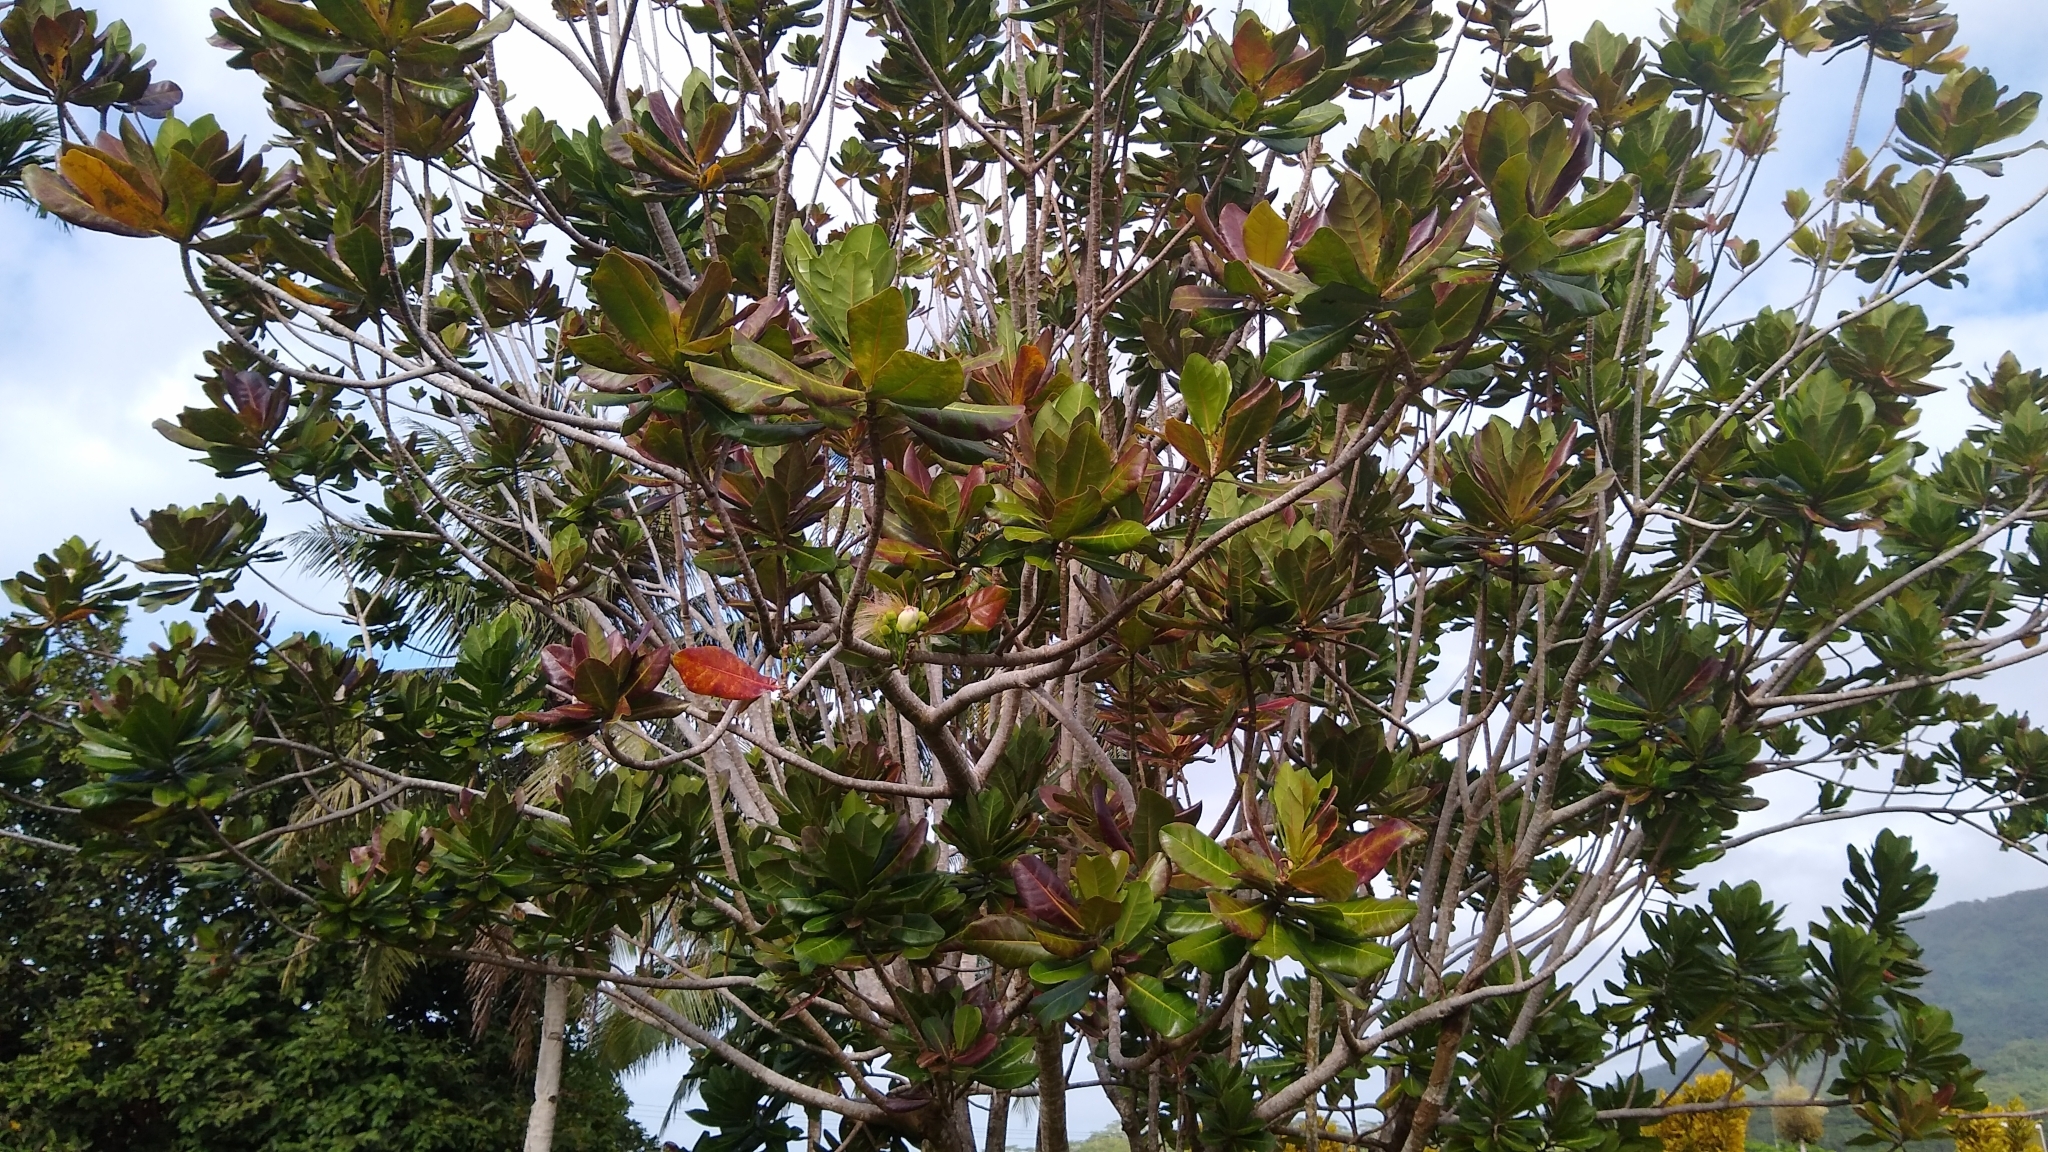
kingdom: Plantae
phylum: Tracheophyta
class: Magnoliopsida
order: Ericales
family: Lecythidaceae
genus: Barringtonia
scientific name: Barringtonia asiatica
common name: Mango-pine
